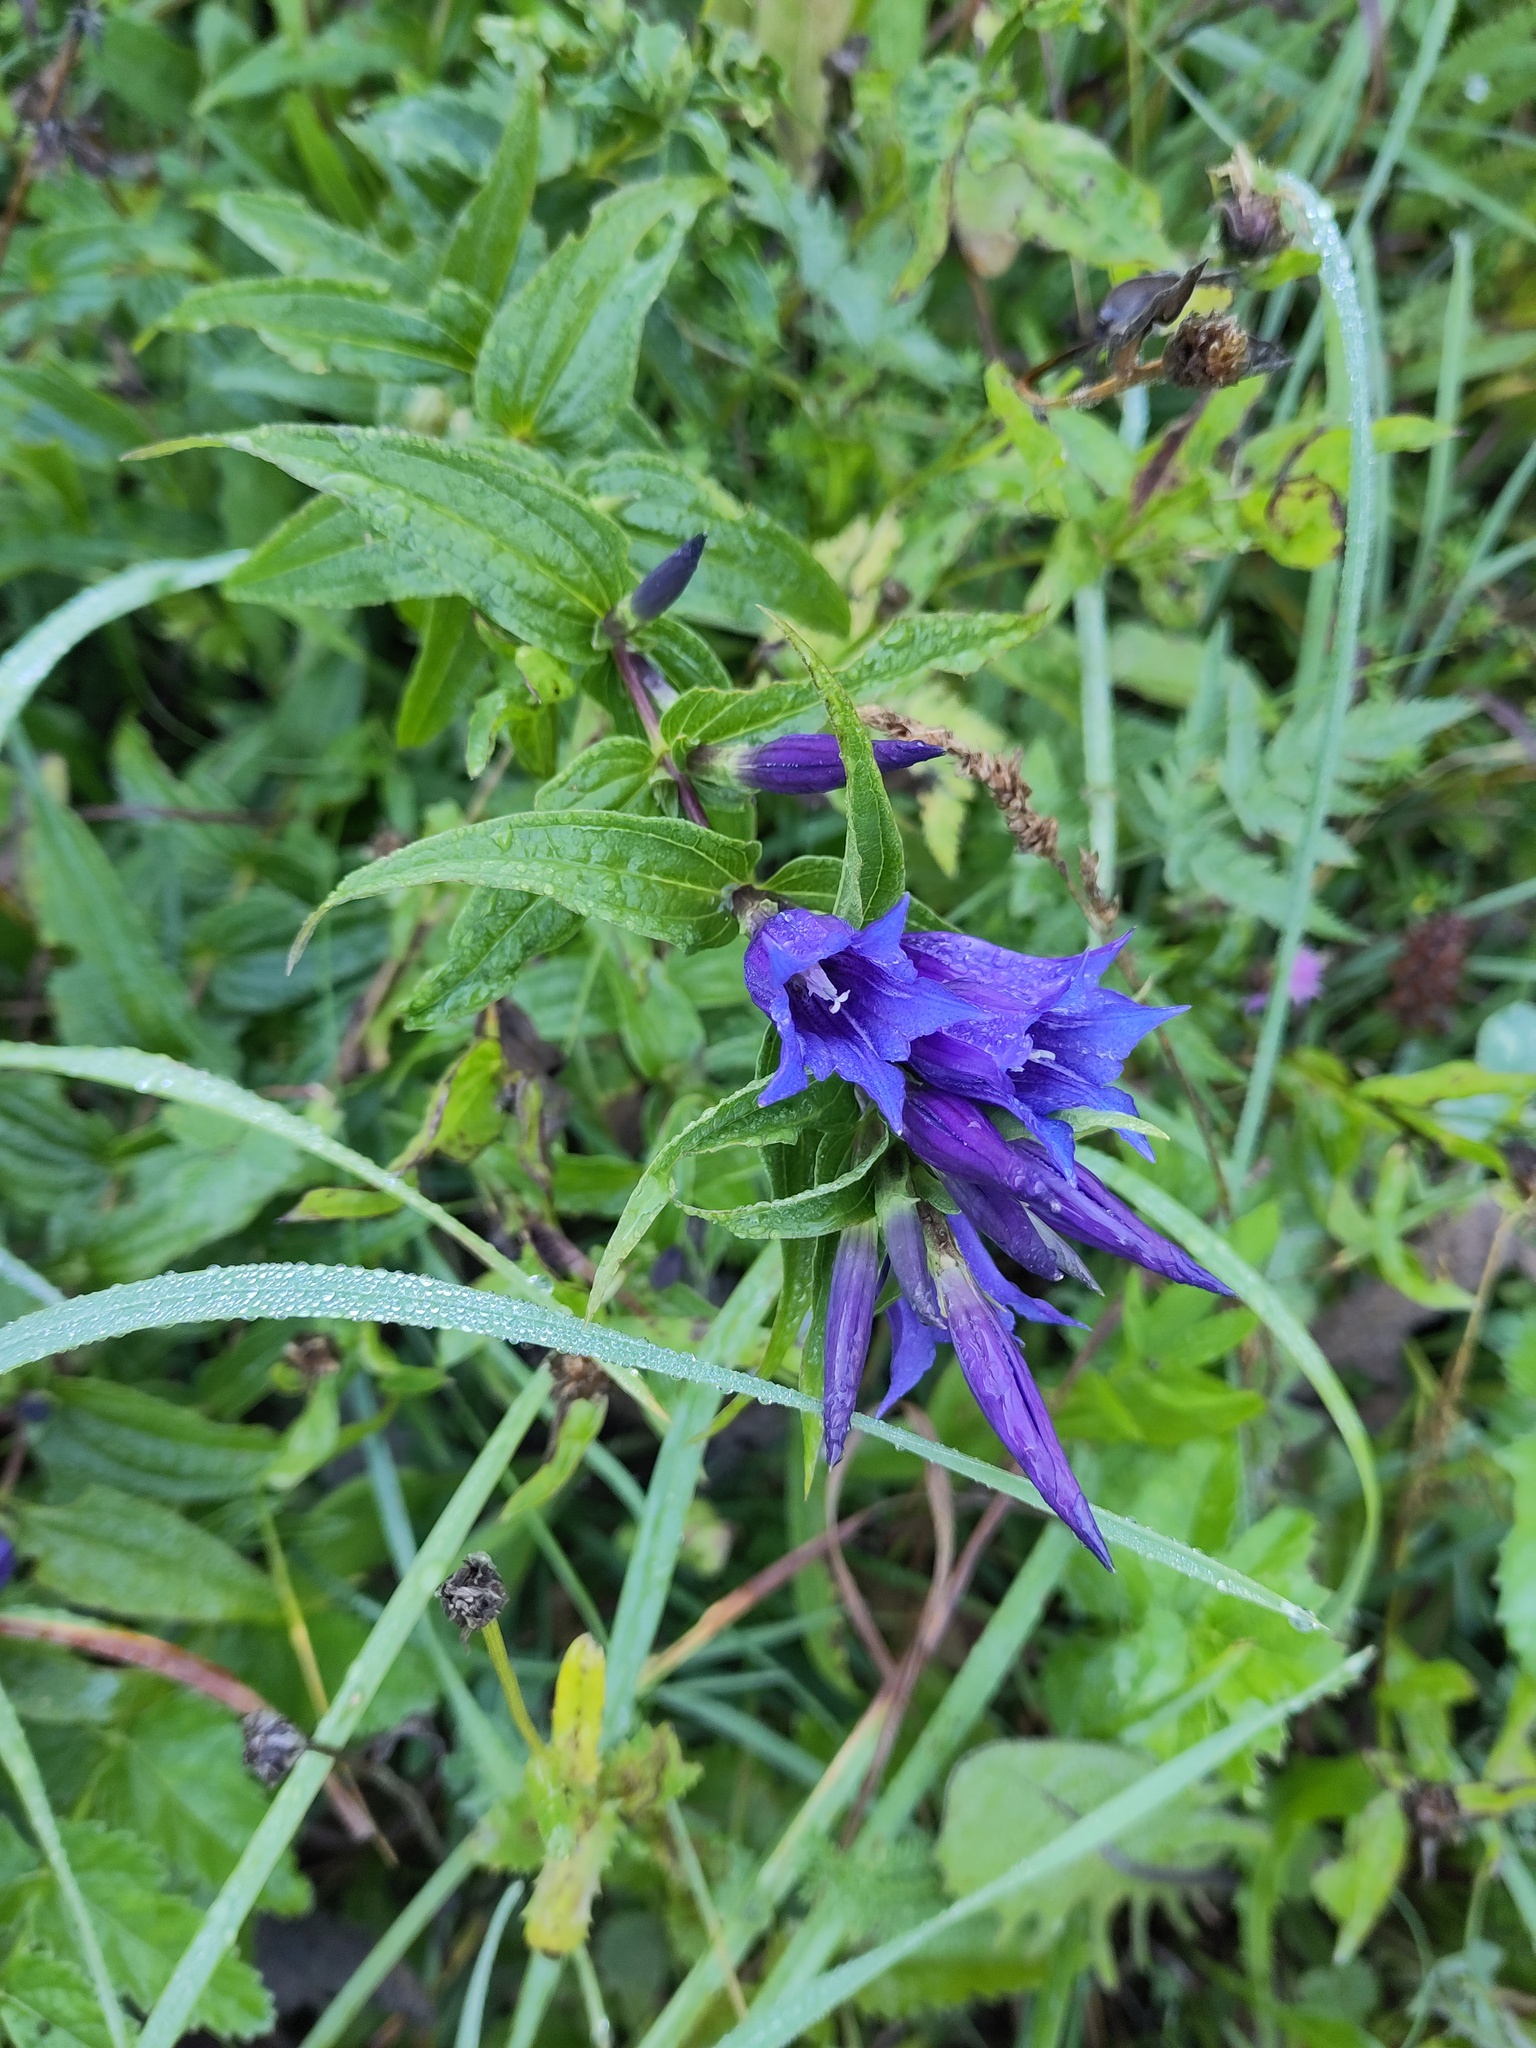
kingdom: Plantae
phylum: Tracheophyta
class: Magnoliopsida
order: Gentianales
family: Gentianaceae
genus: Gentiana
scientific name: Gentiana asclepiadea
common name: Willow gentian
